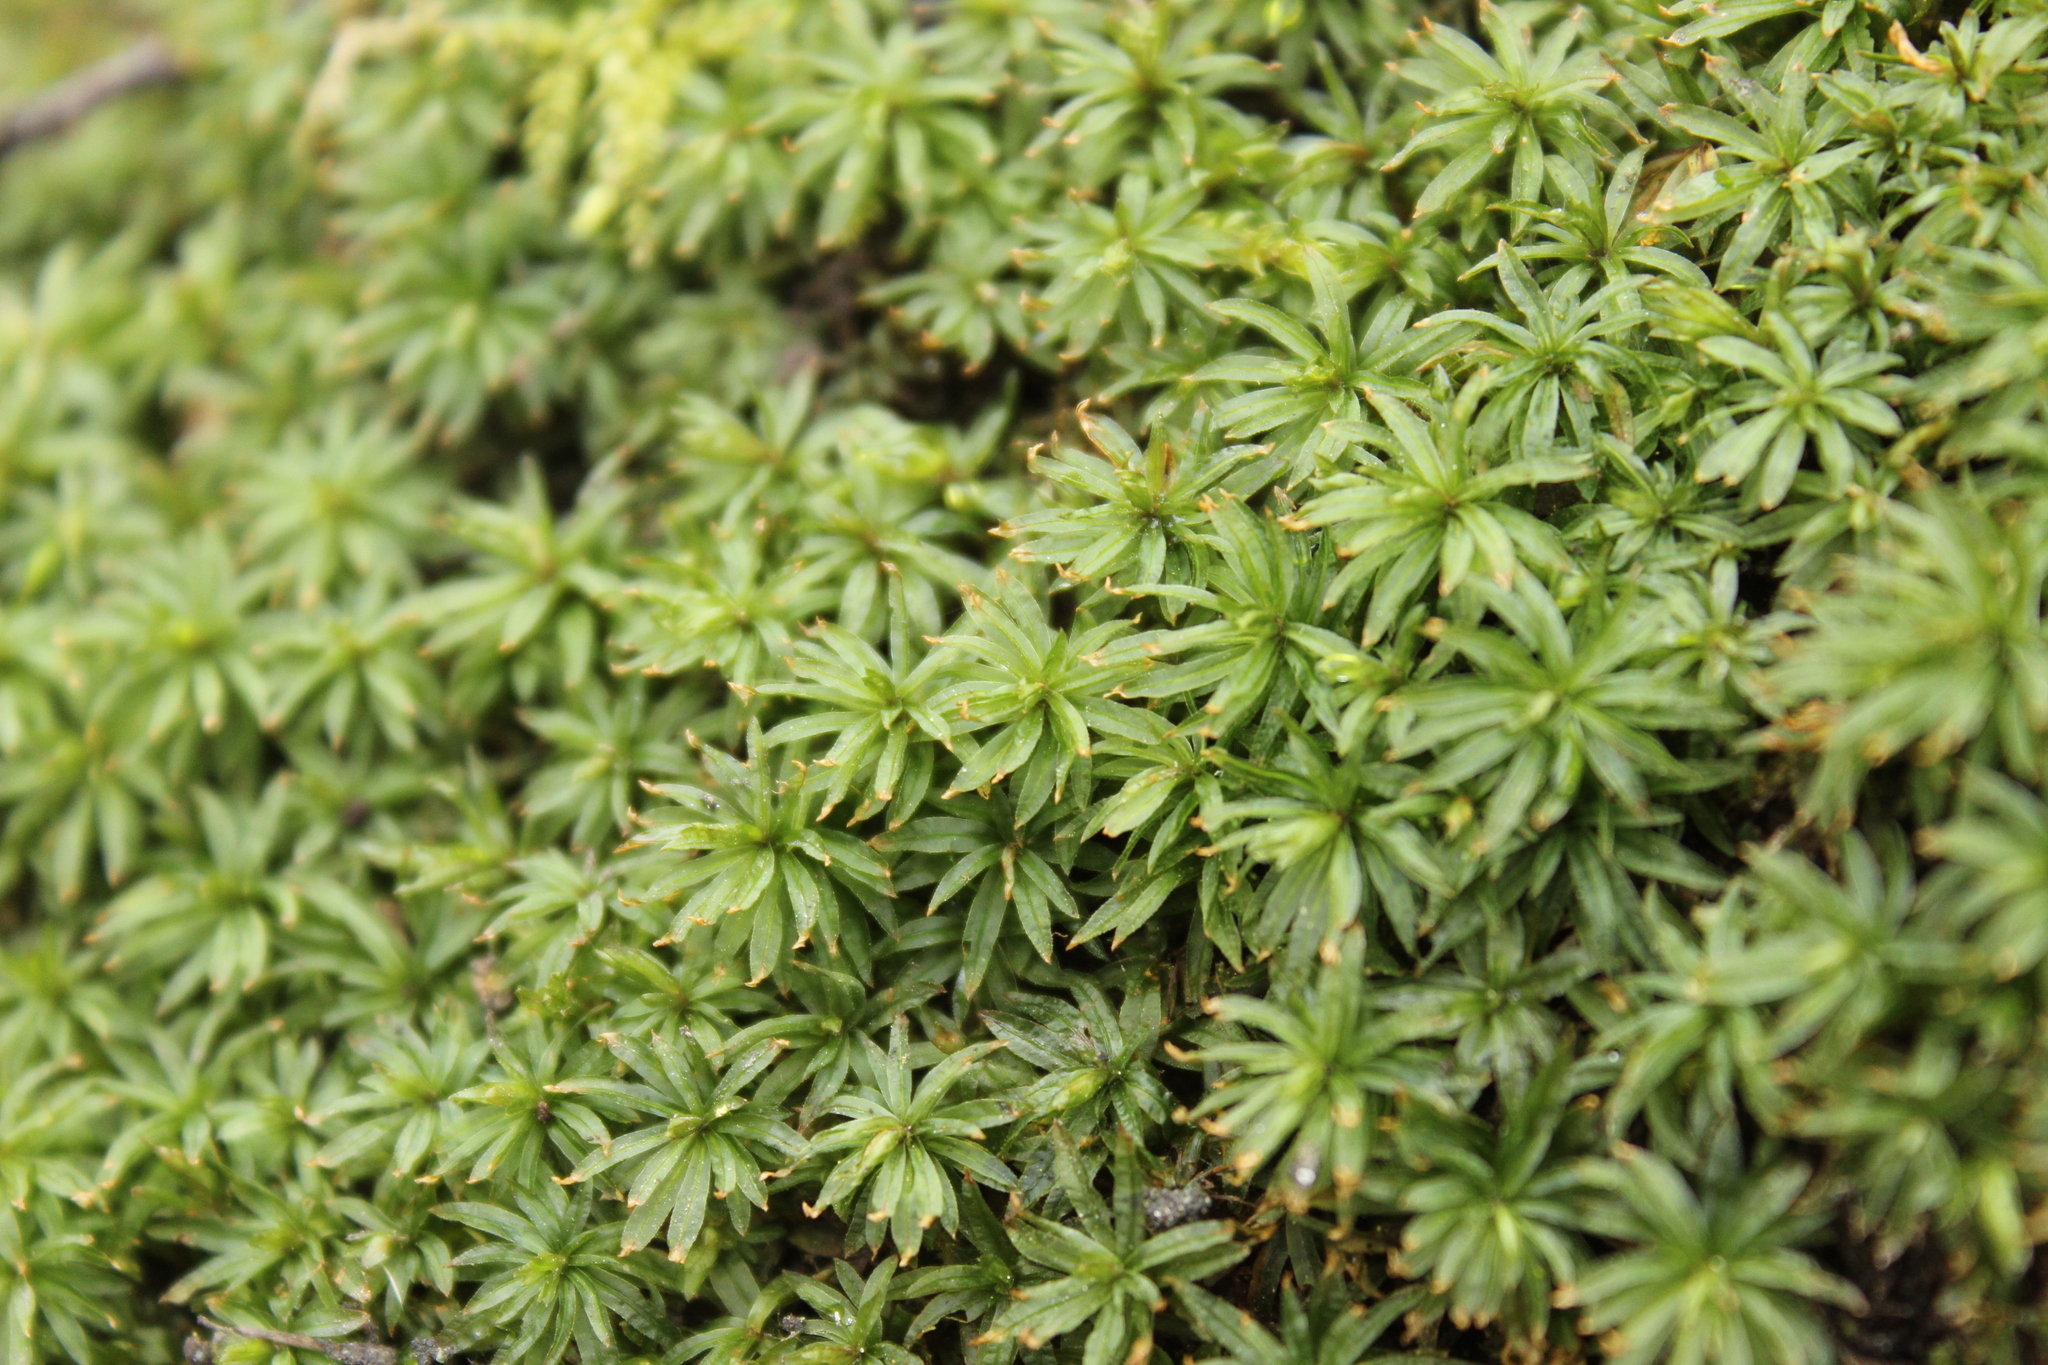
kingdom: Plantae
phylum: Bryophyta
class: Polytrichopsida
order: Polytrichales
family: Polytrichaceae
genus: Atrichum
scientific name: Atrichum undulatum
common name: Common smoothcap
